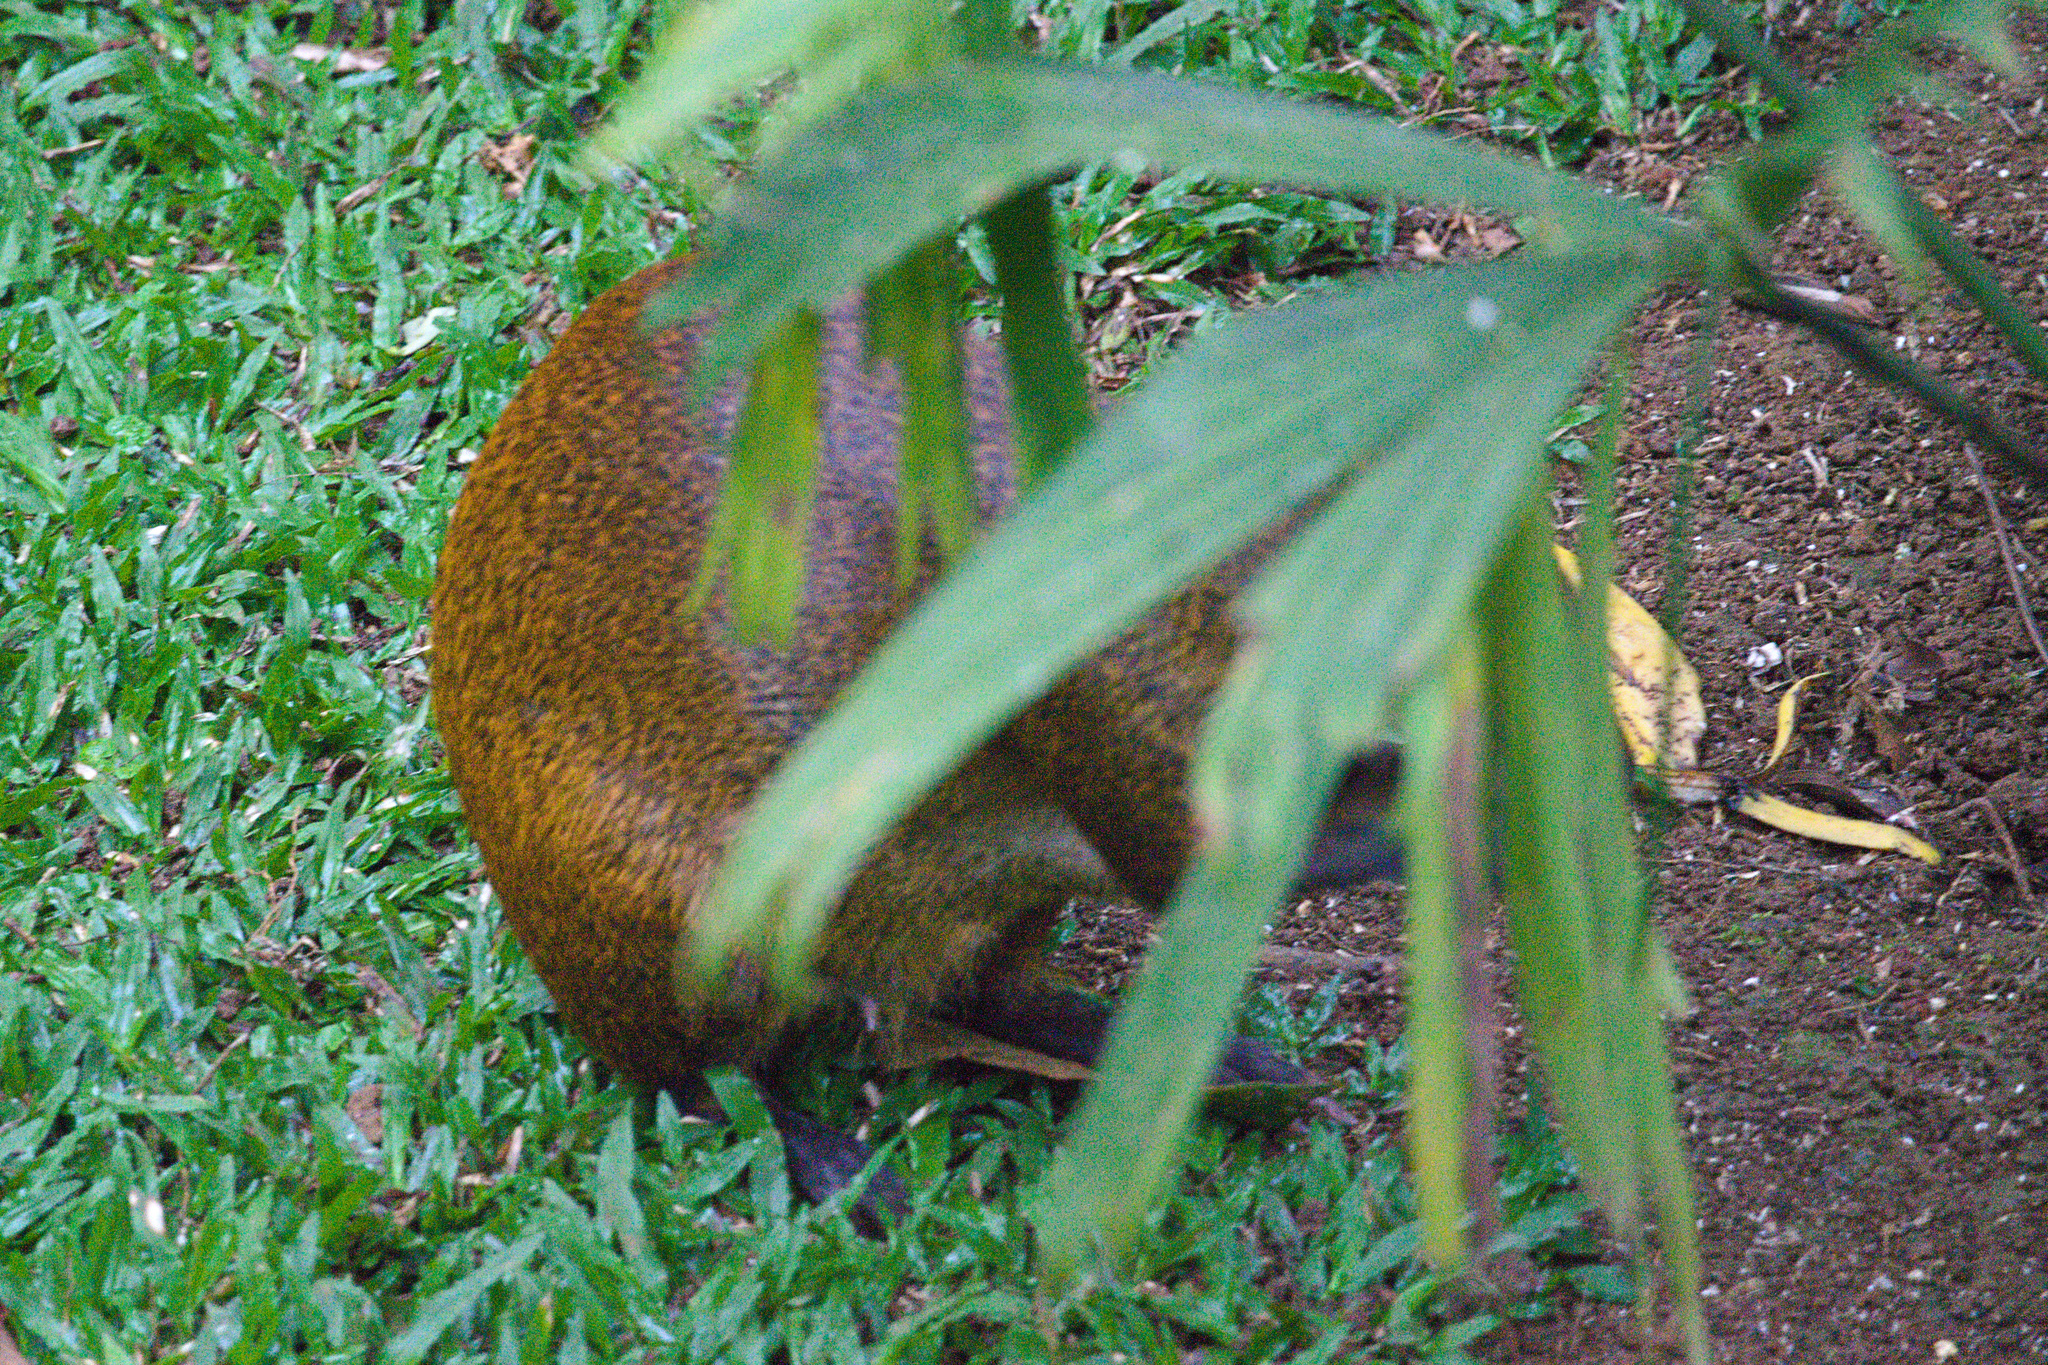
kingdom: Animalia
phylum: Chordata
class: Mammalia
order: Rodentia
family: Dasyproctidae
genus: Dasyprocta
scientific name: Dasyprocta punctata
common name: Central american agouti
